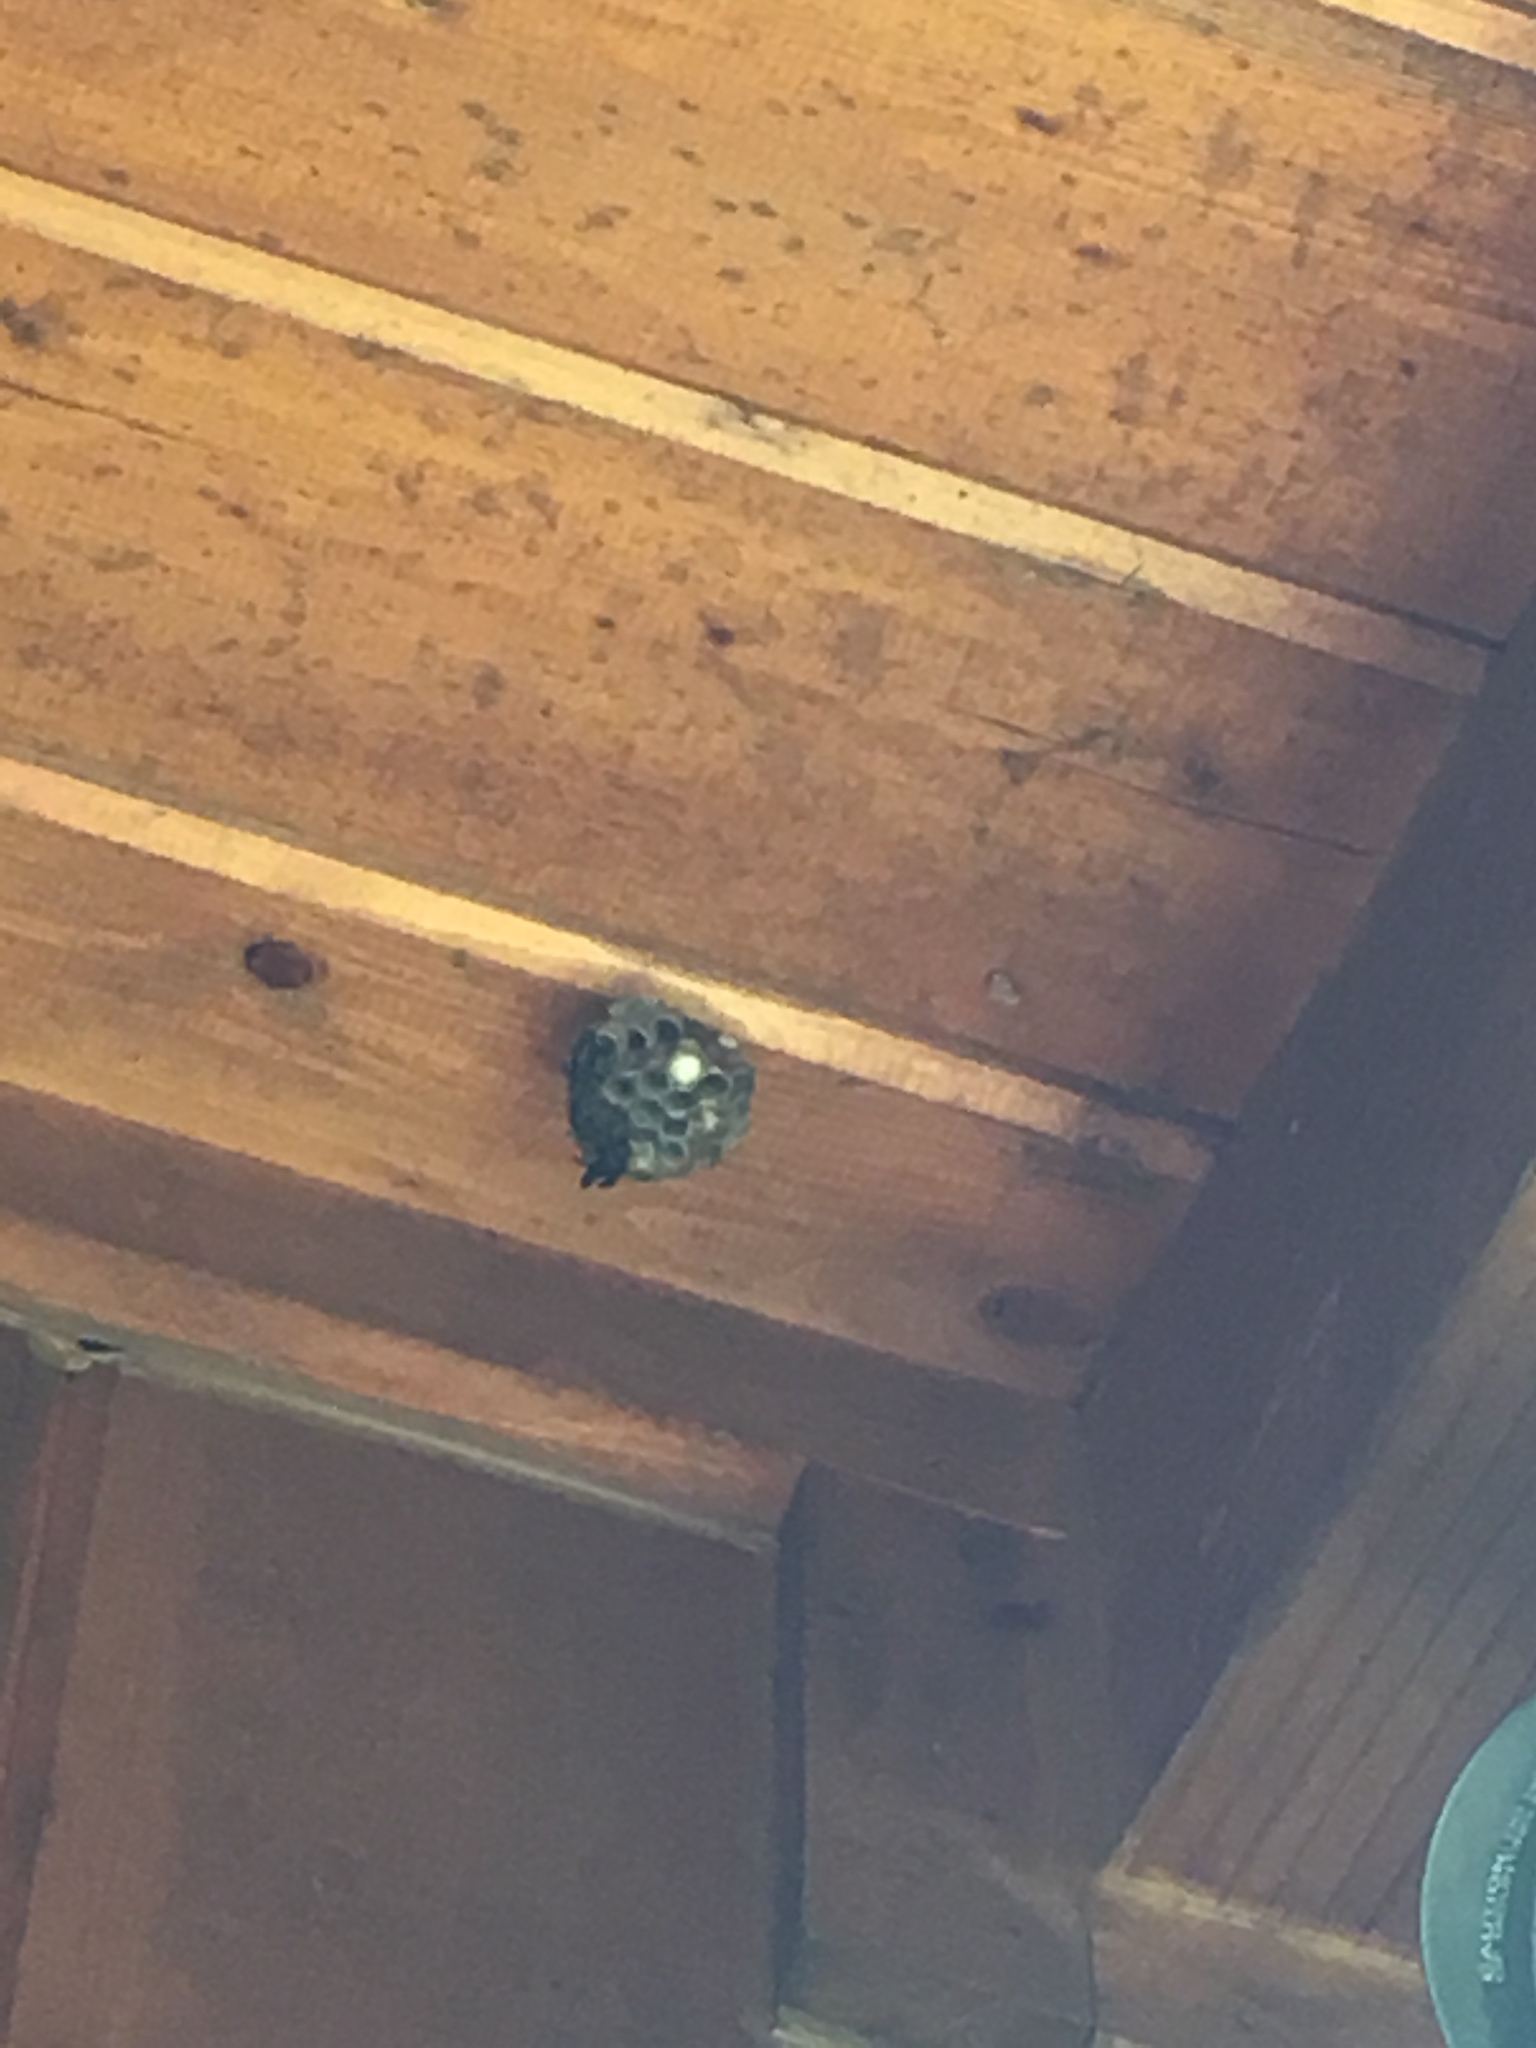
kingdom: Animalia
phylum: Arthropoda
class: Insecta
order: Hymenoptera
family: Eumenidae
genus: Polistes
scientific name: Polistes
